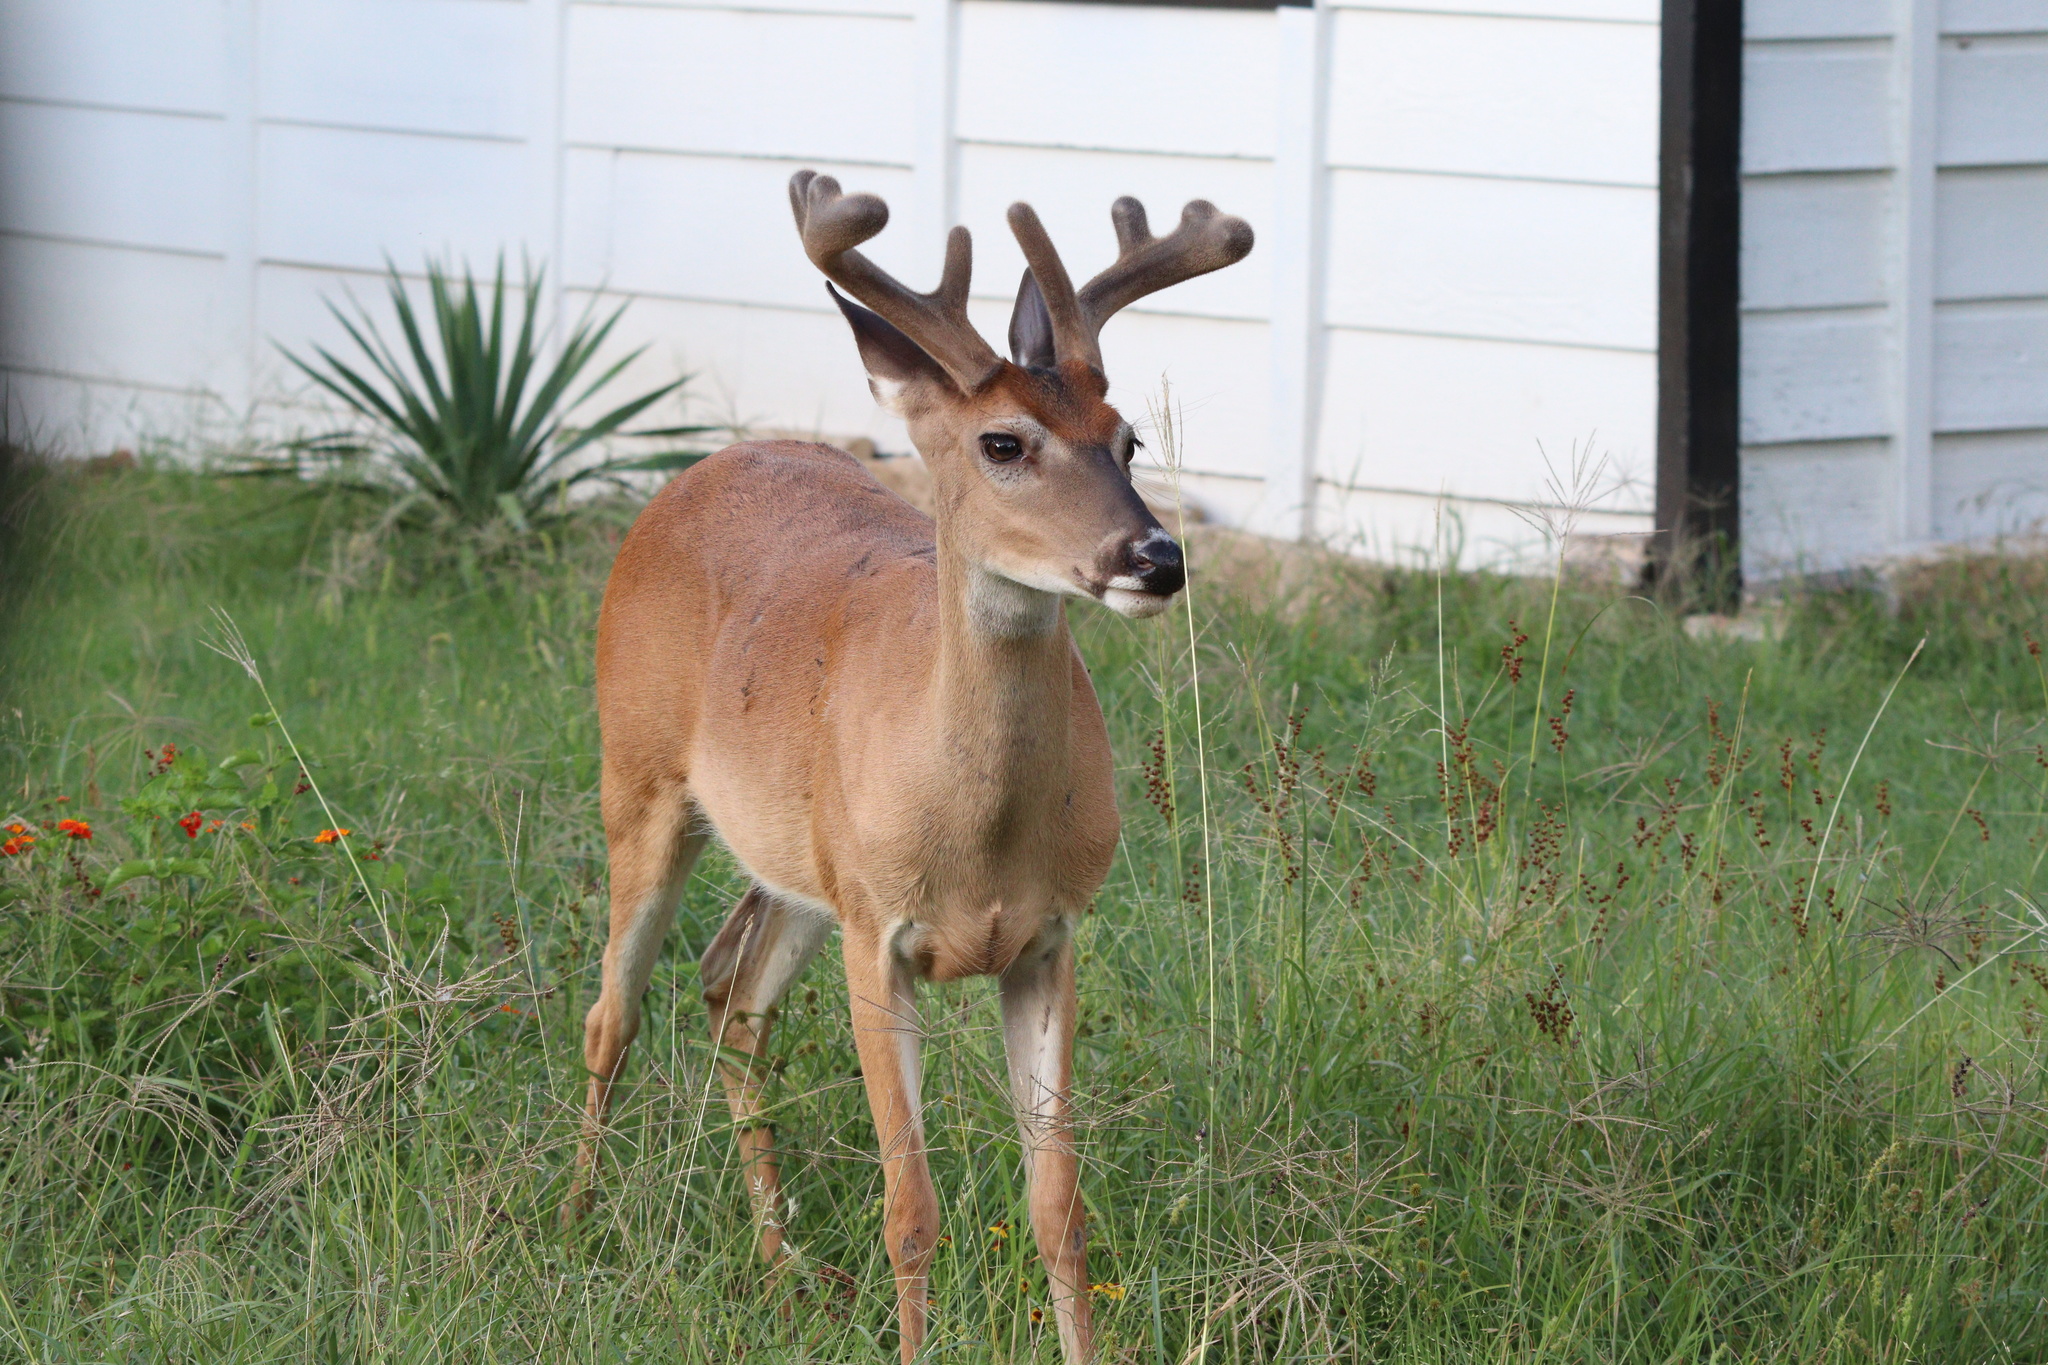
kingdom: Animalia
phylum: Chordata
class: Mammalia
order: Artiodactyla
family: Cervidae
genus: Odocoileus
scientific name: Odocoileus virginianus
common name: White-tailed deer
